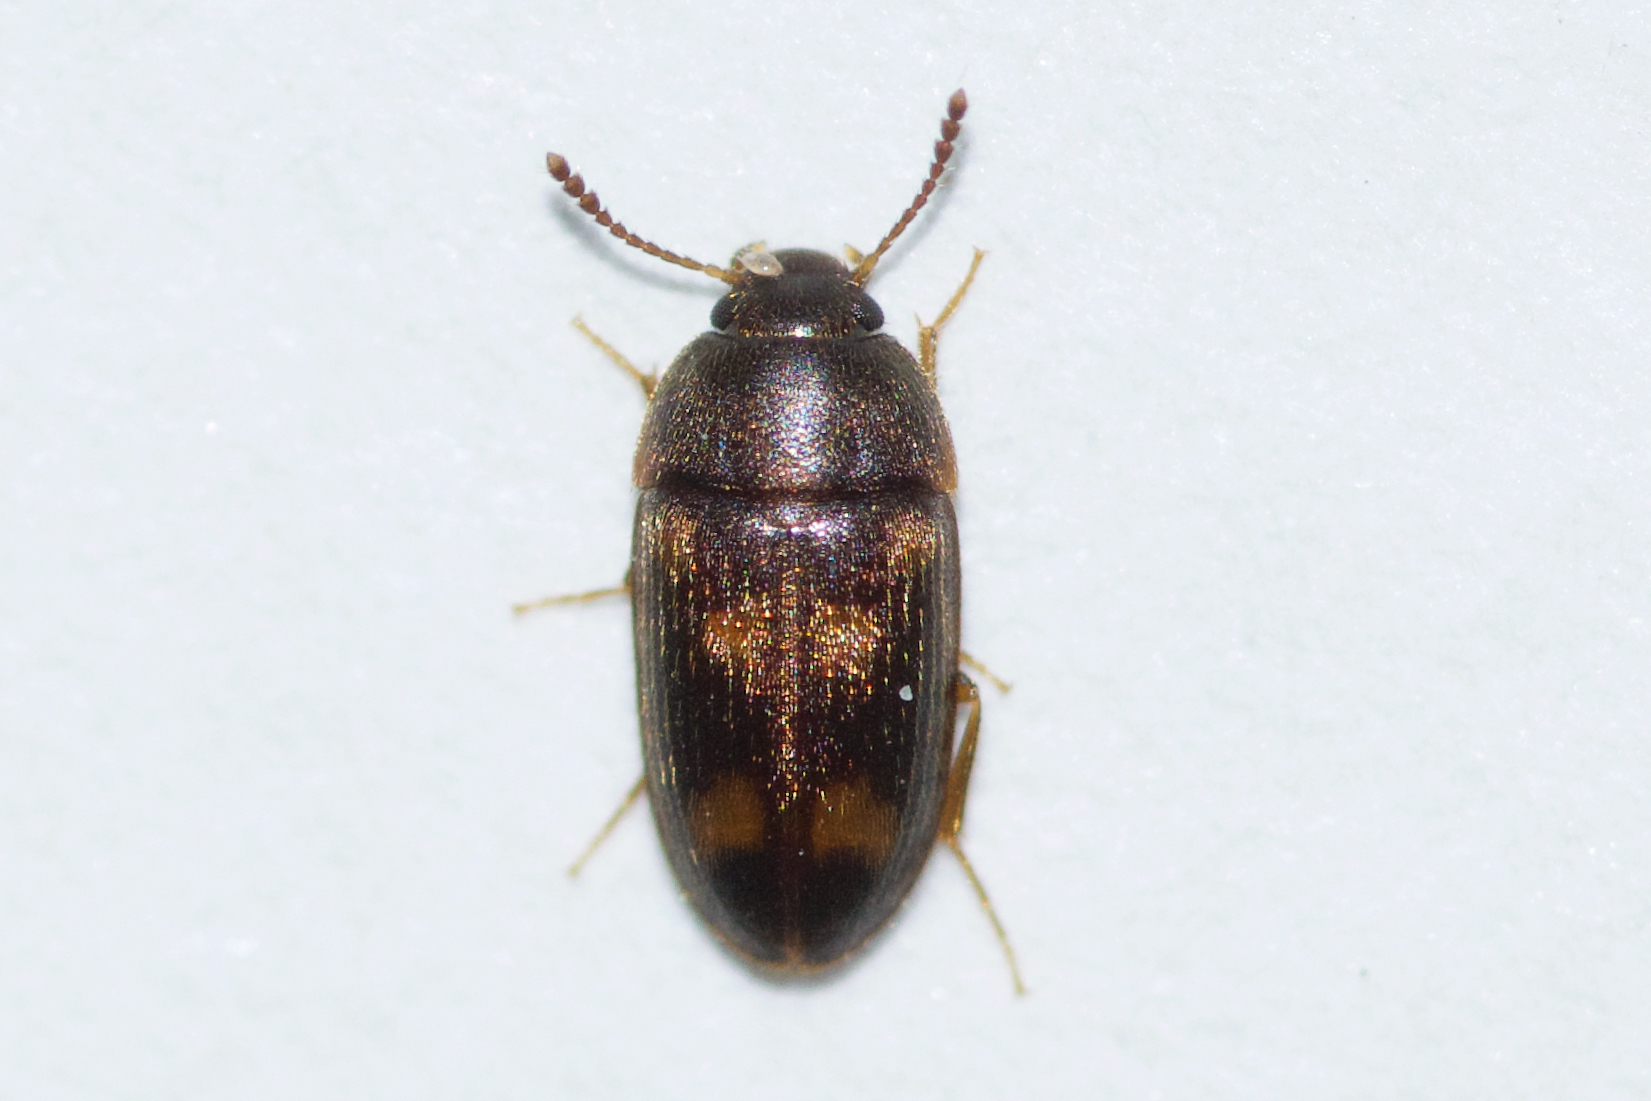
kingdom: Animalia
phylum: Arthropoda
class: Insecta
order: Coleoptera
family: Mycetophagidae
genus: Litargus
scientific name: Litargus sexpunctatus
